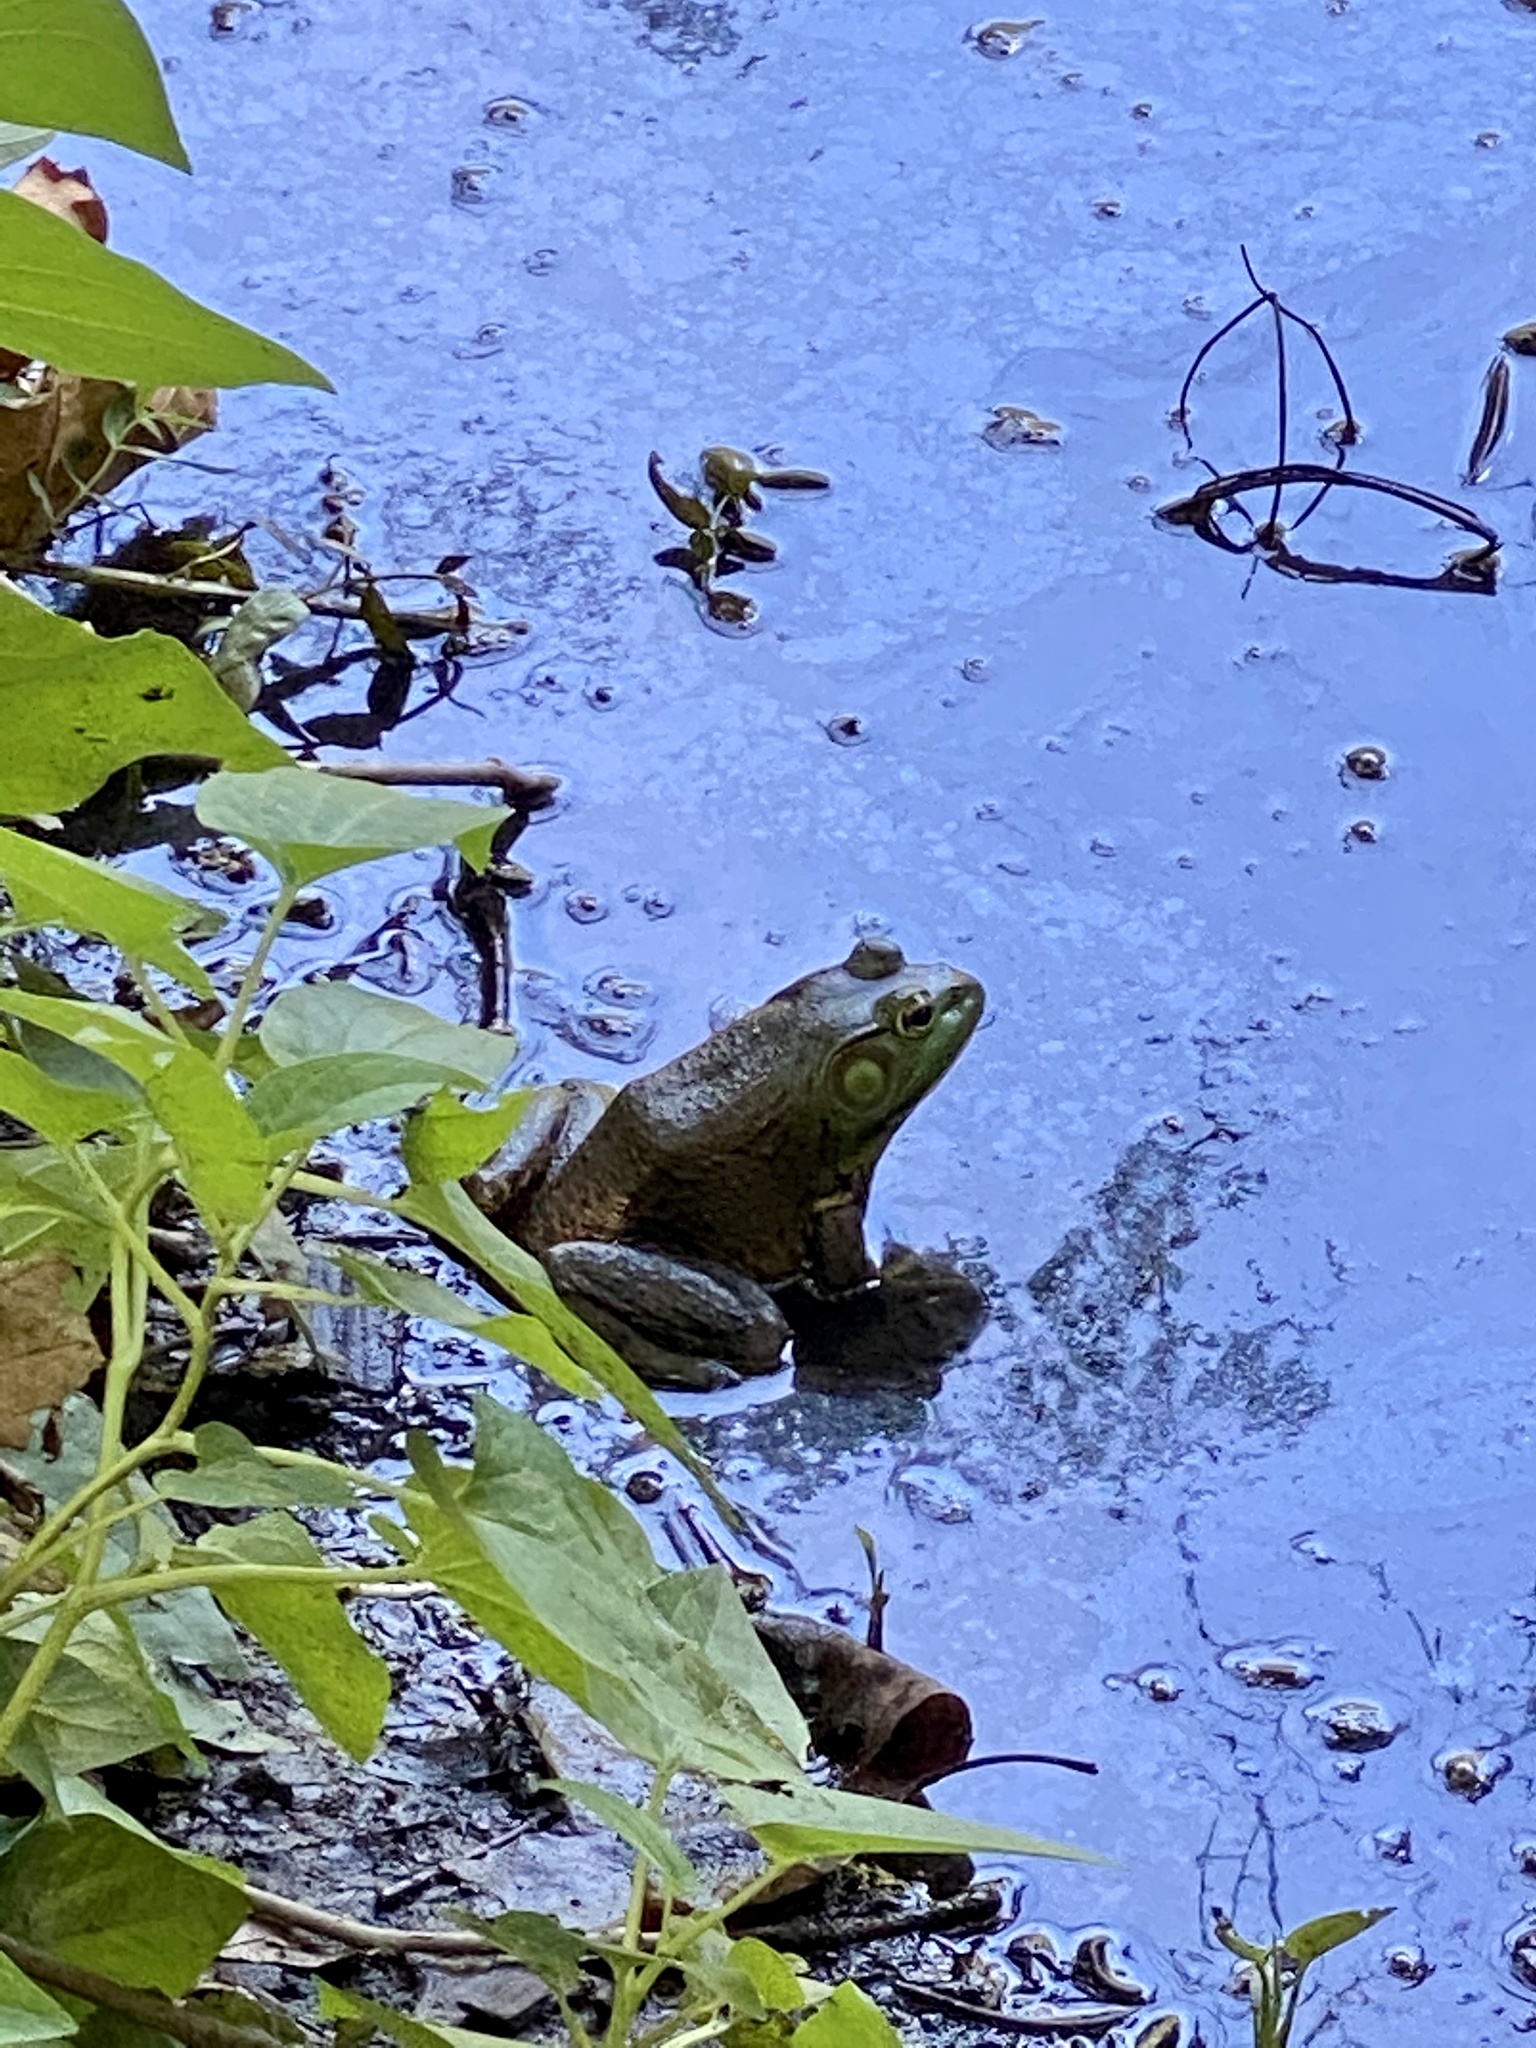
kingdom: Animalia
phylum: Chordata
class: Amphibia
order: Anura
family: Ranidae
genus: Lithobates
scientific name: Lithobates catesbeianus
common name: American bullfrog
